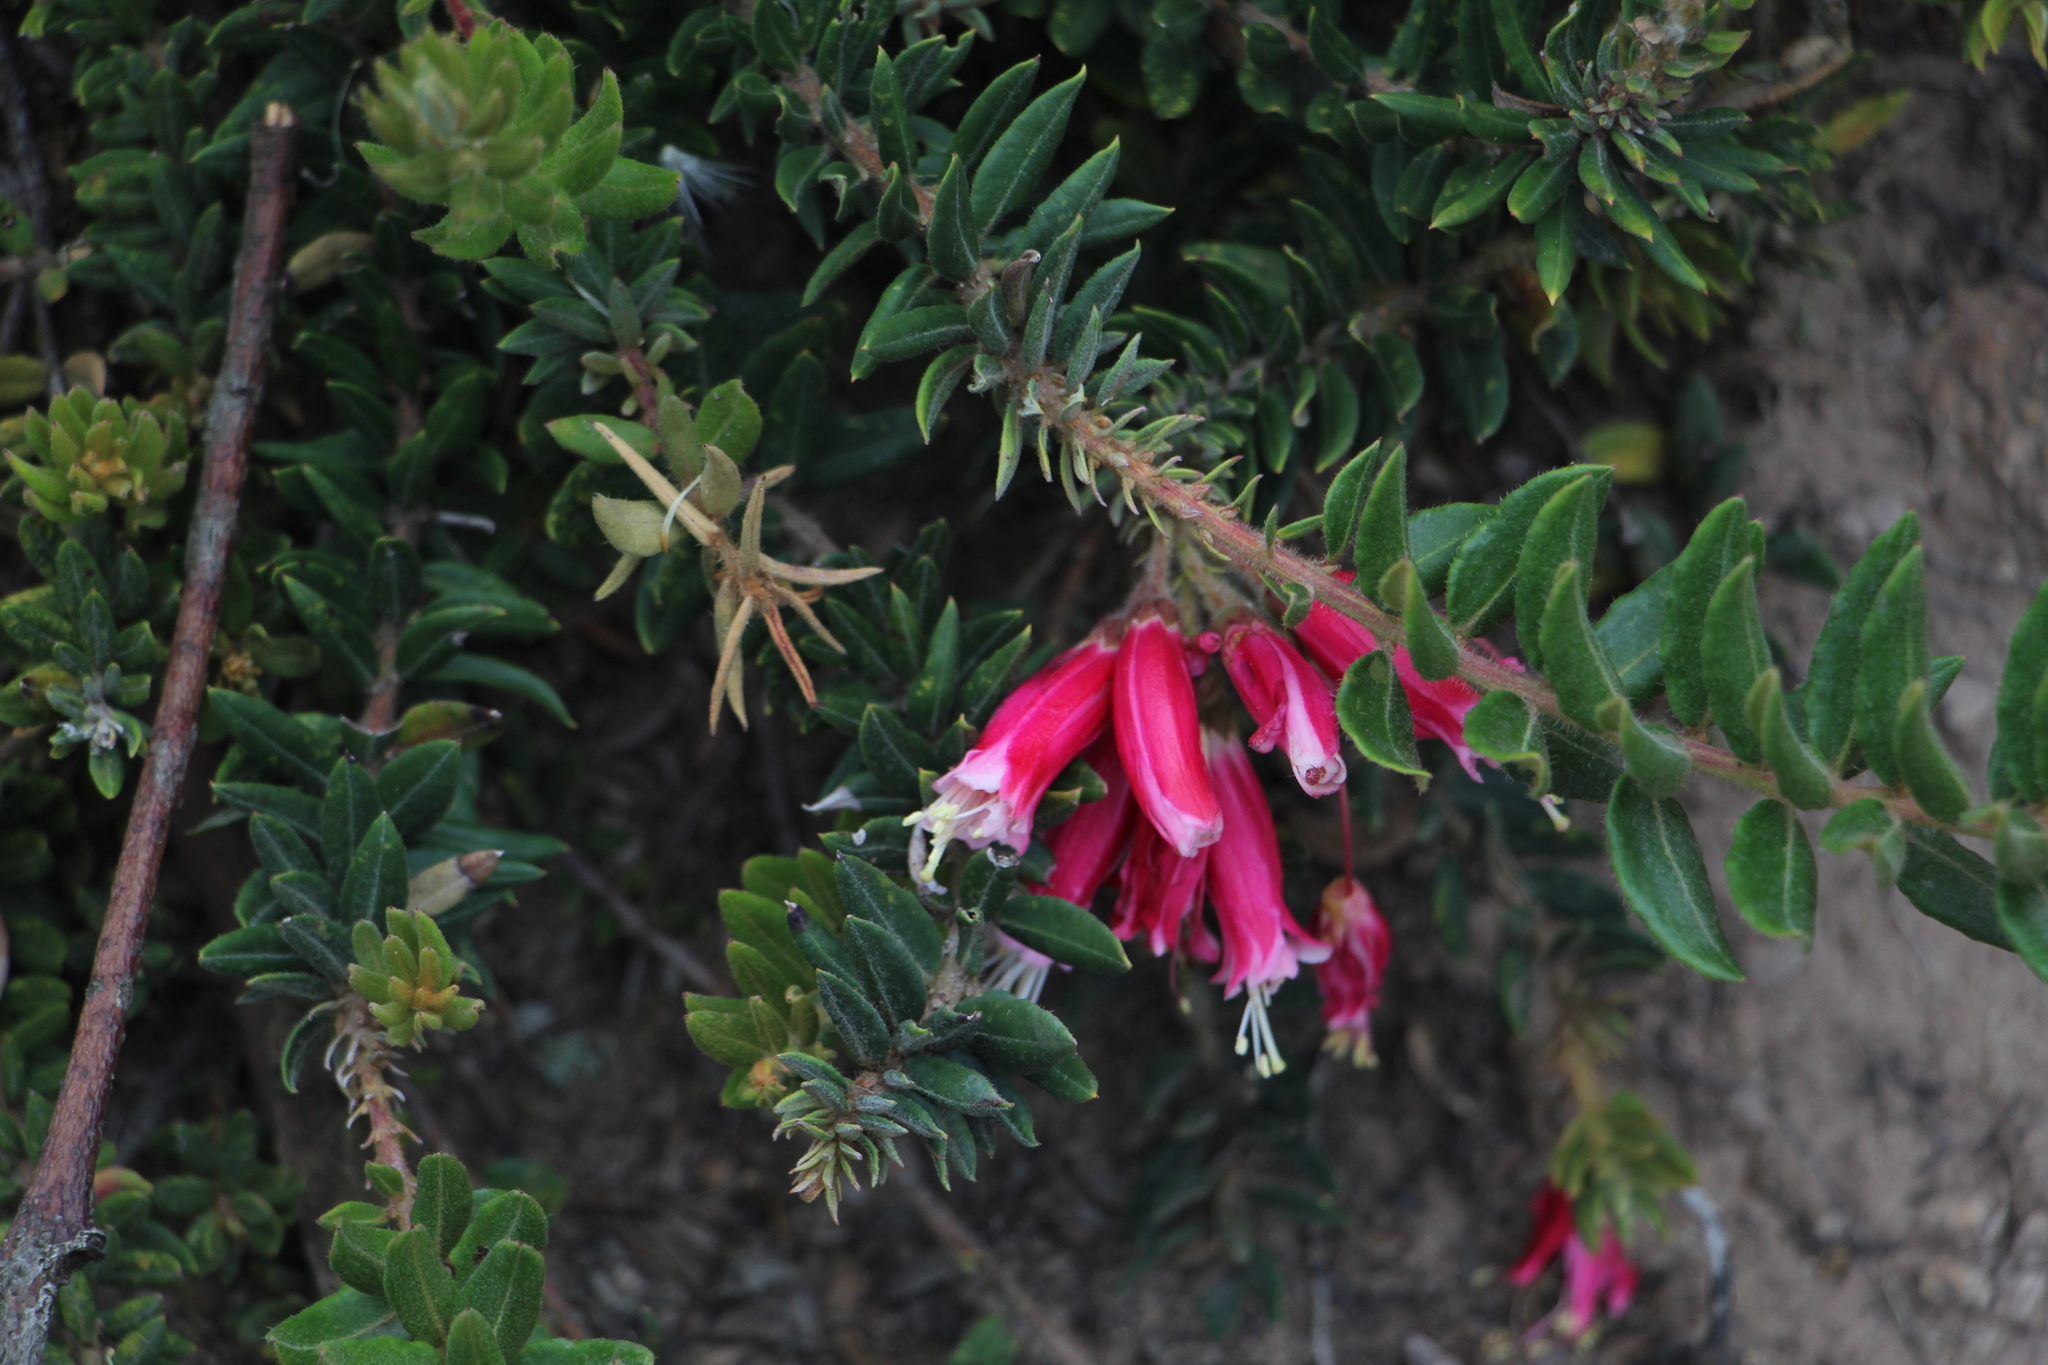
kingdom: Plantae
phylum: Tracheophyta
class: Magnoliopsida
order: Ericales
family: Ericaceae
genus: Bejaria
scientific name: Bejaria resinosa
